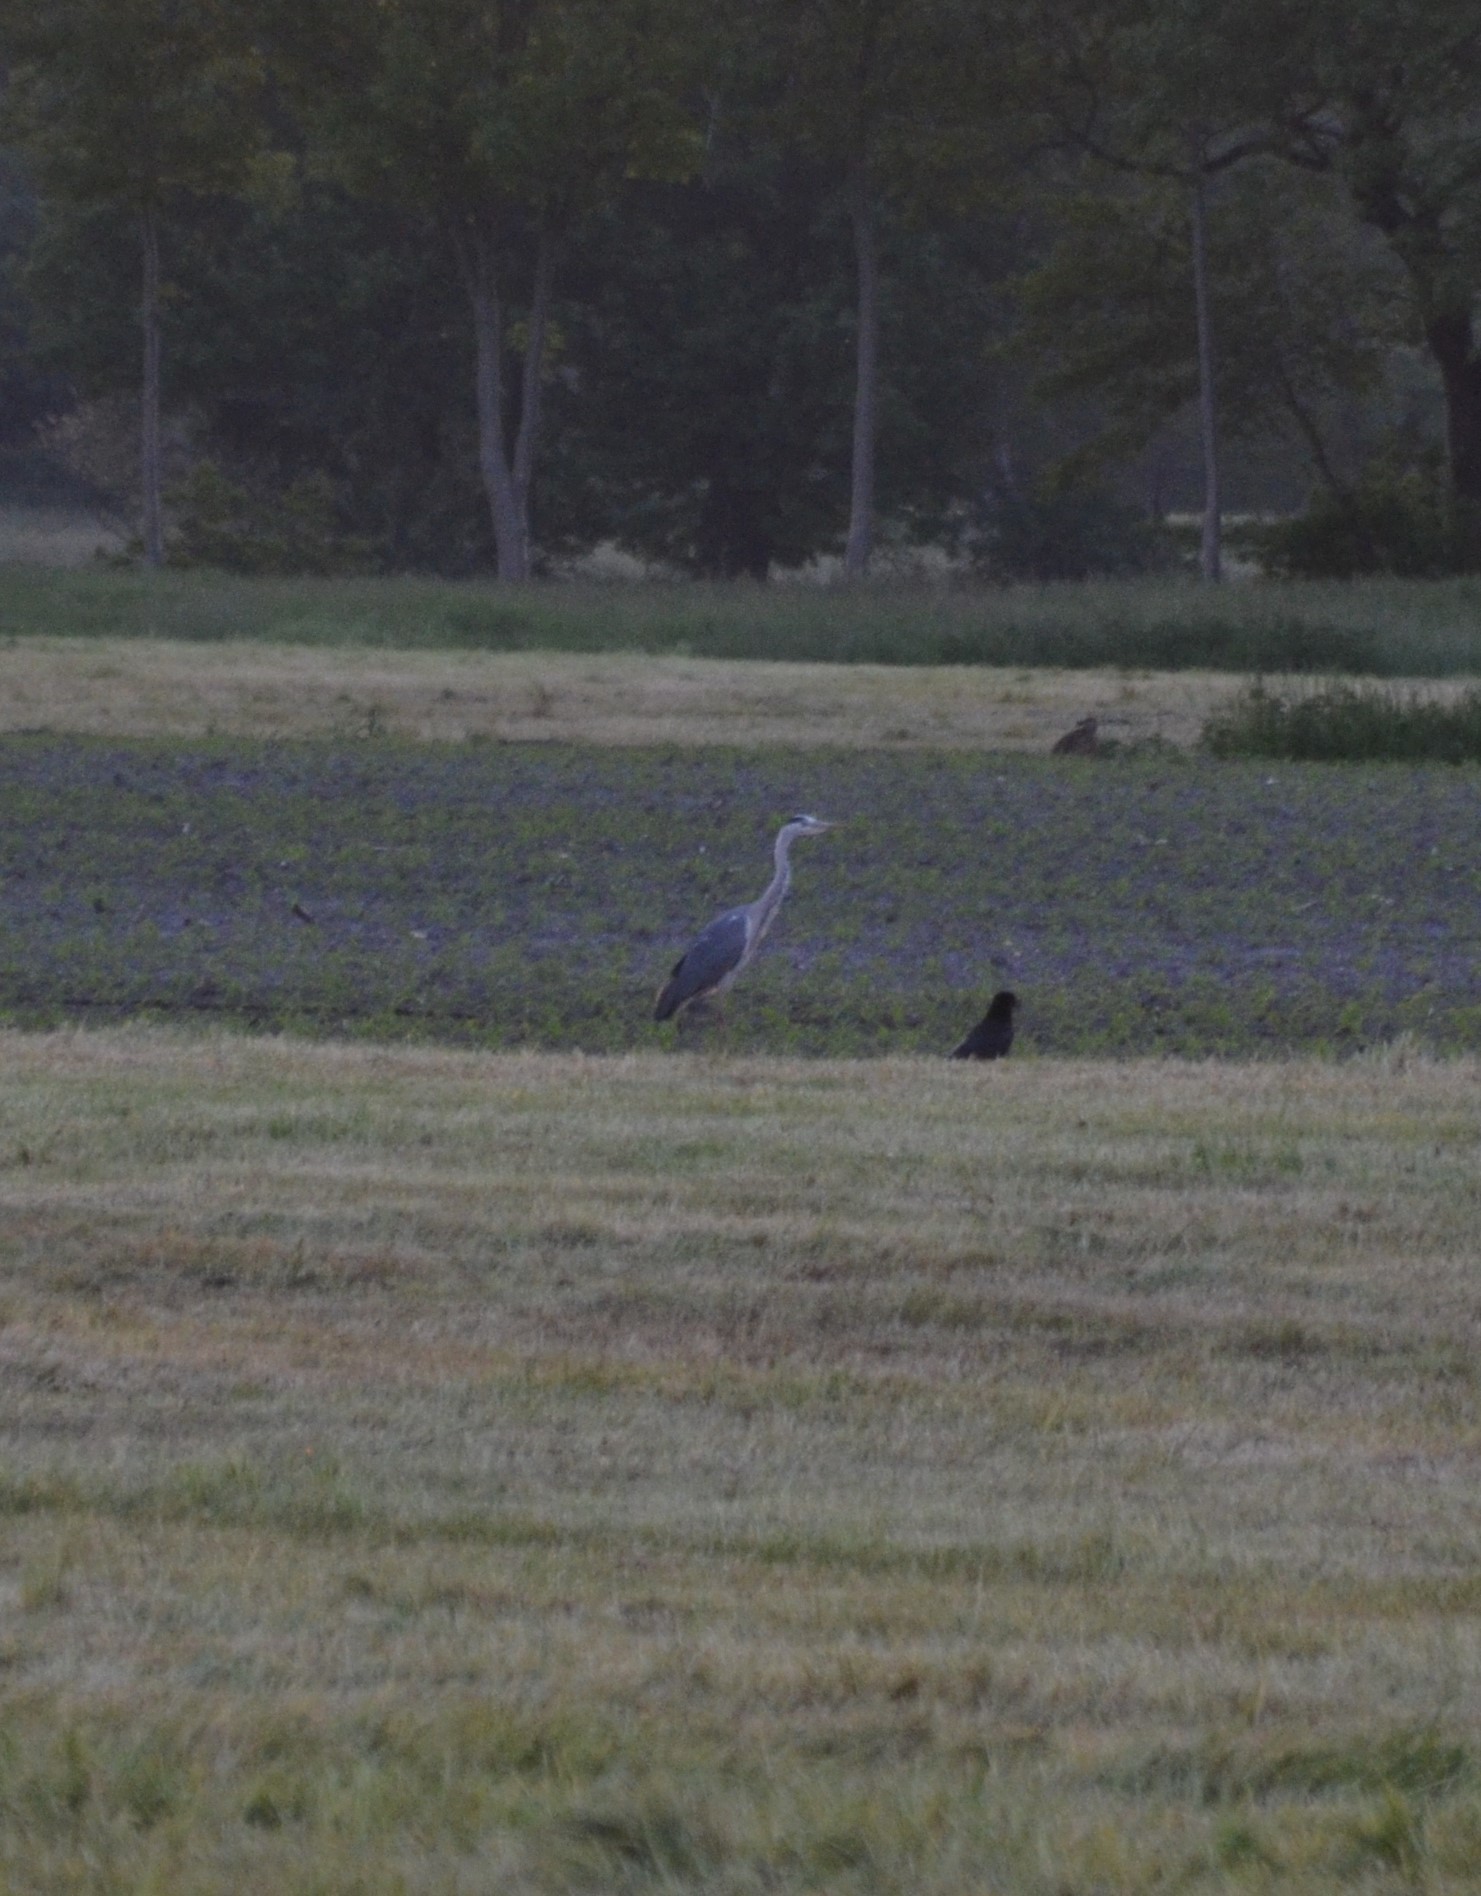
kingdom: Animalia
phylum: Chordata
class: Aves
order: Pelecaniformes
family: Ardeidae
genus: Ardea
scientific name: Ardea cinerea
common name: Grey heron
